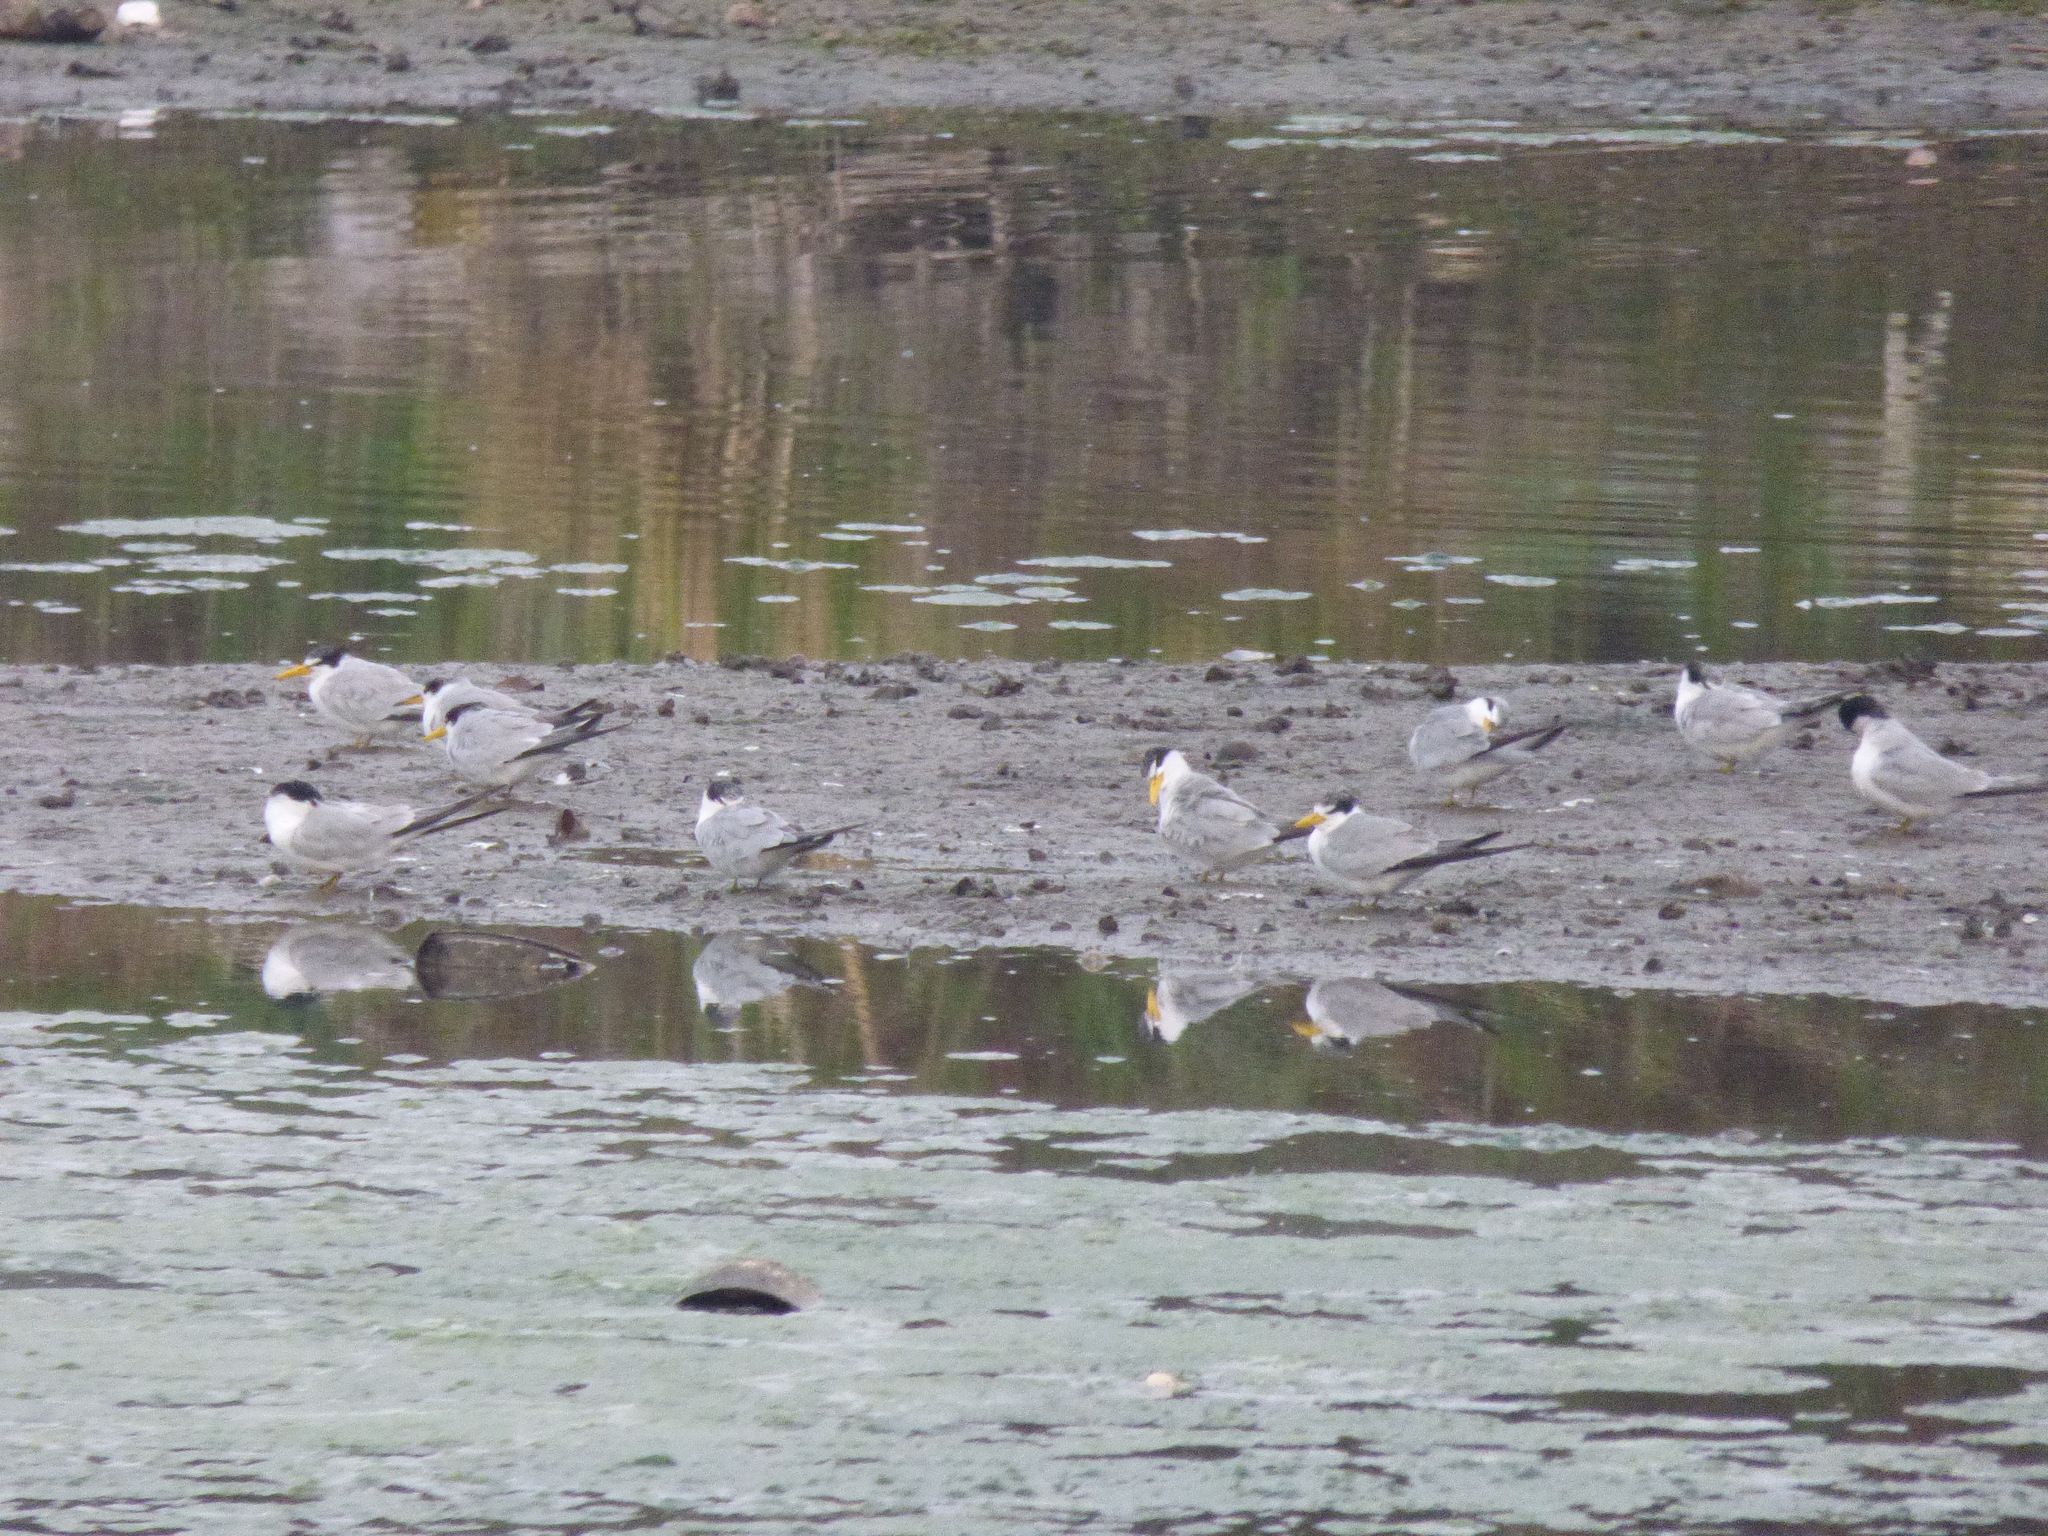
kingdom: Animalia
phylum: Chordata
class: Aves
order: Charadriiformes
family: Laridae
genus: Sternula
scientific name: Sternula superciliaris
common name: Yellow-billed tern
